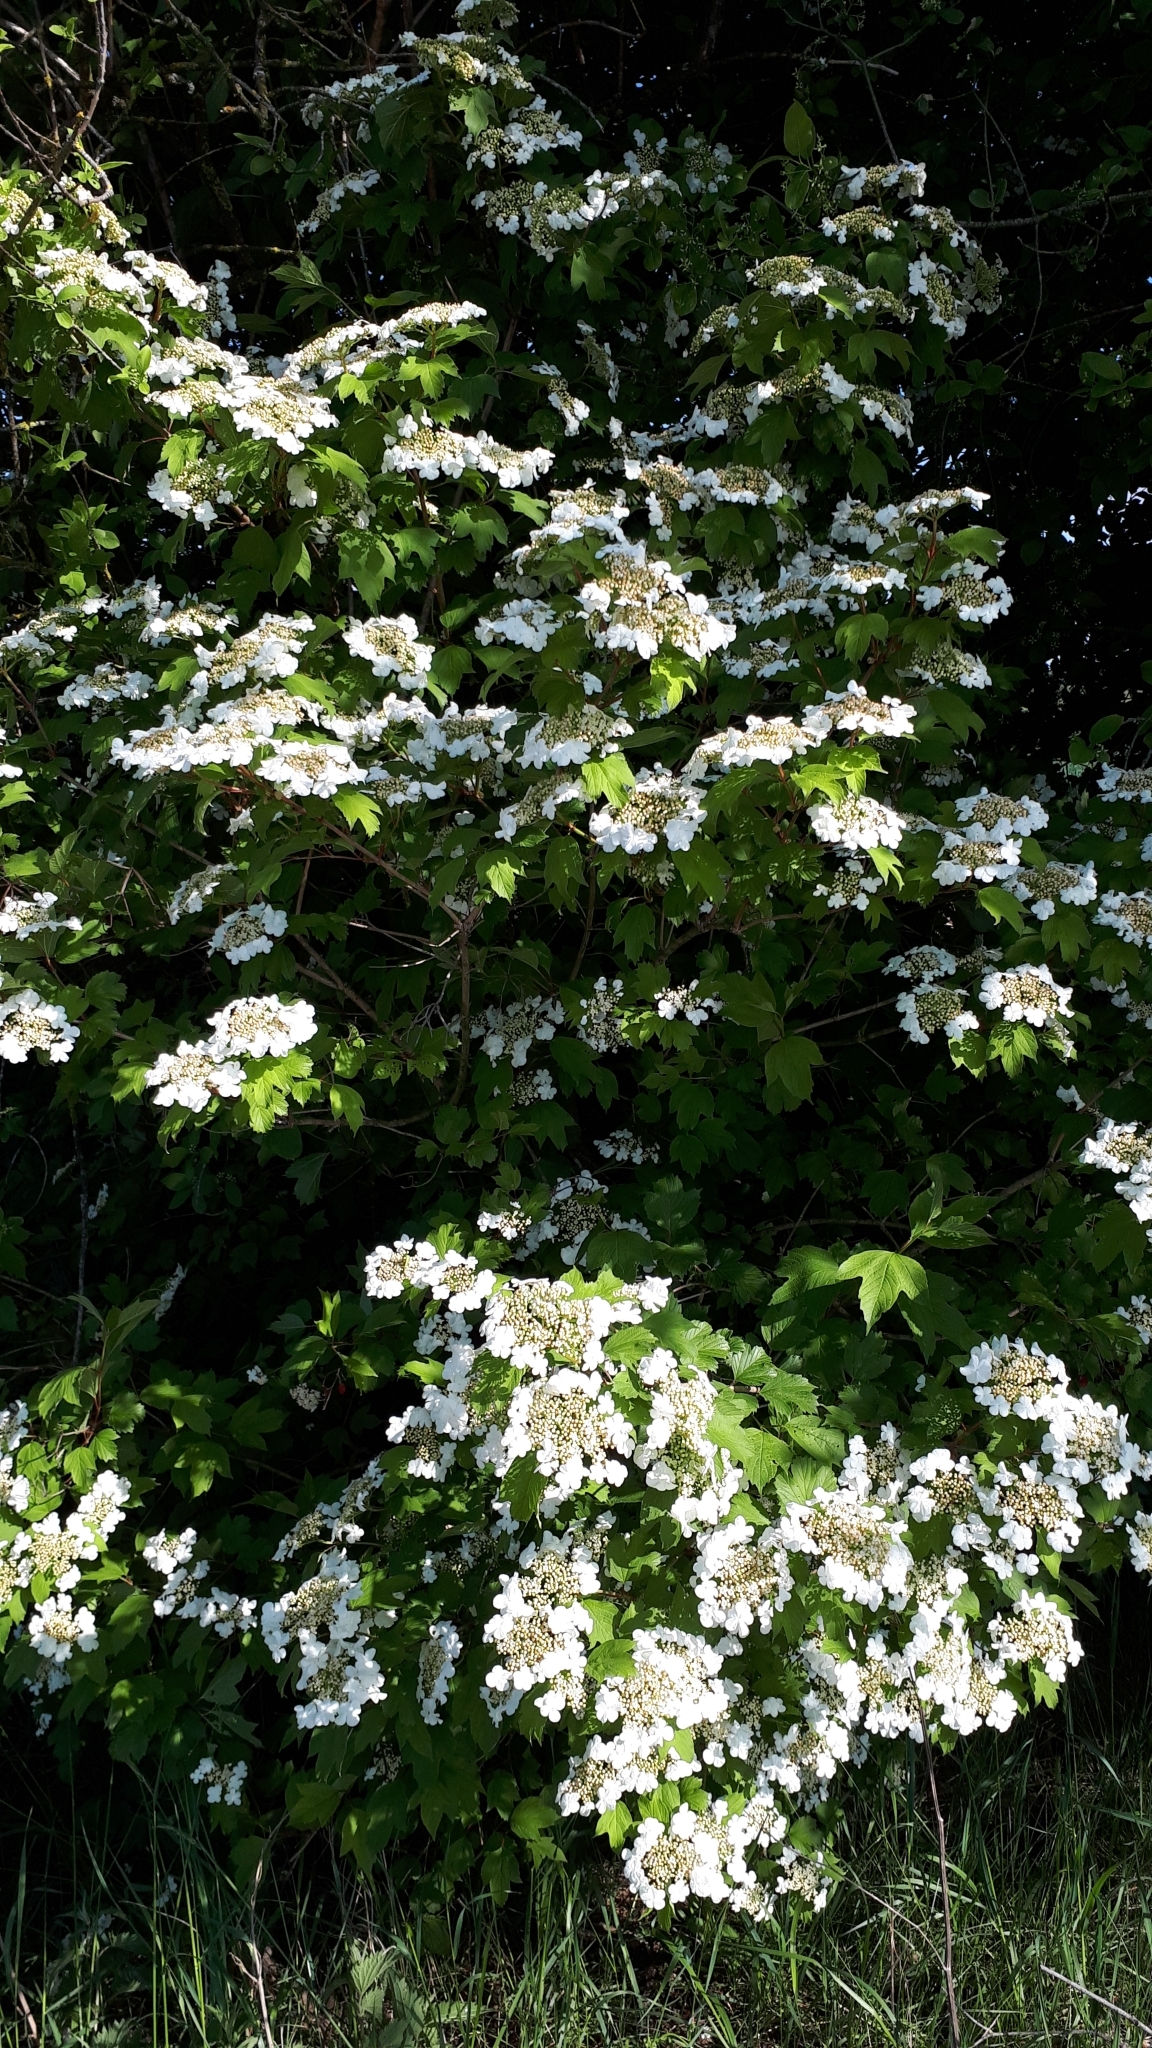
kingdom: Plantae
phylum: Tracheophyta
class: Magnoliopsida
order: Dipsacales
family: Viburnaceae
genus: Viburnum
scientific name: Viburnum opulus
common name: Guelder-rose
